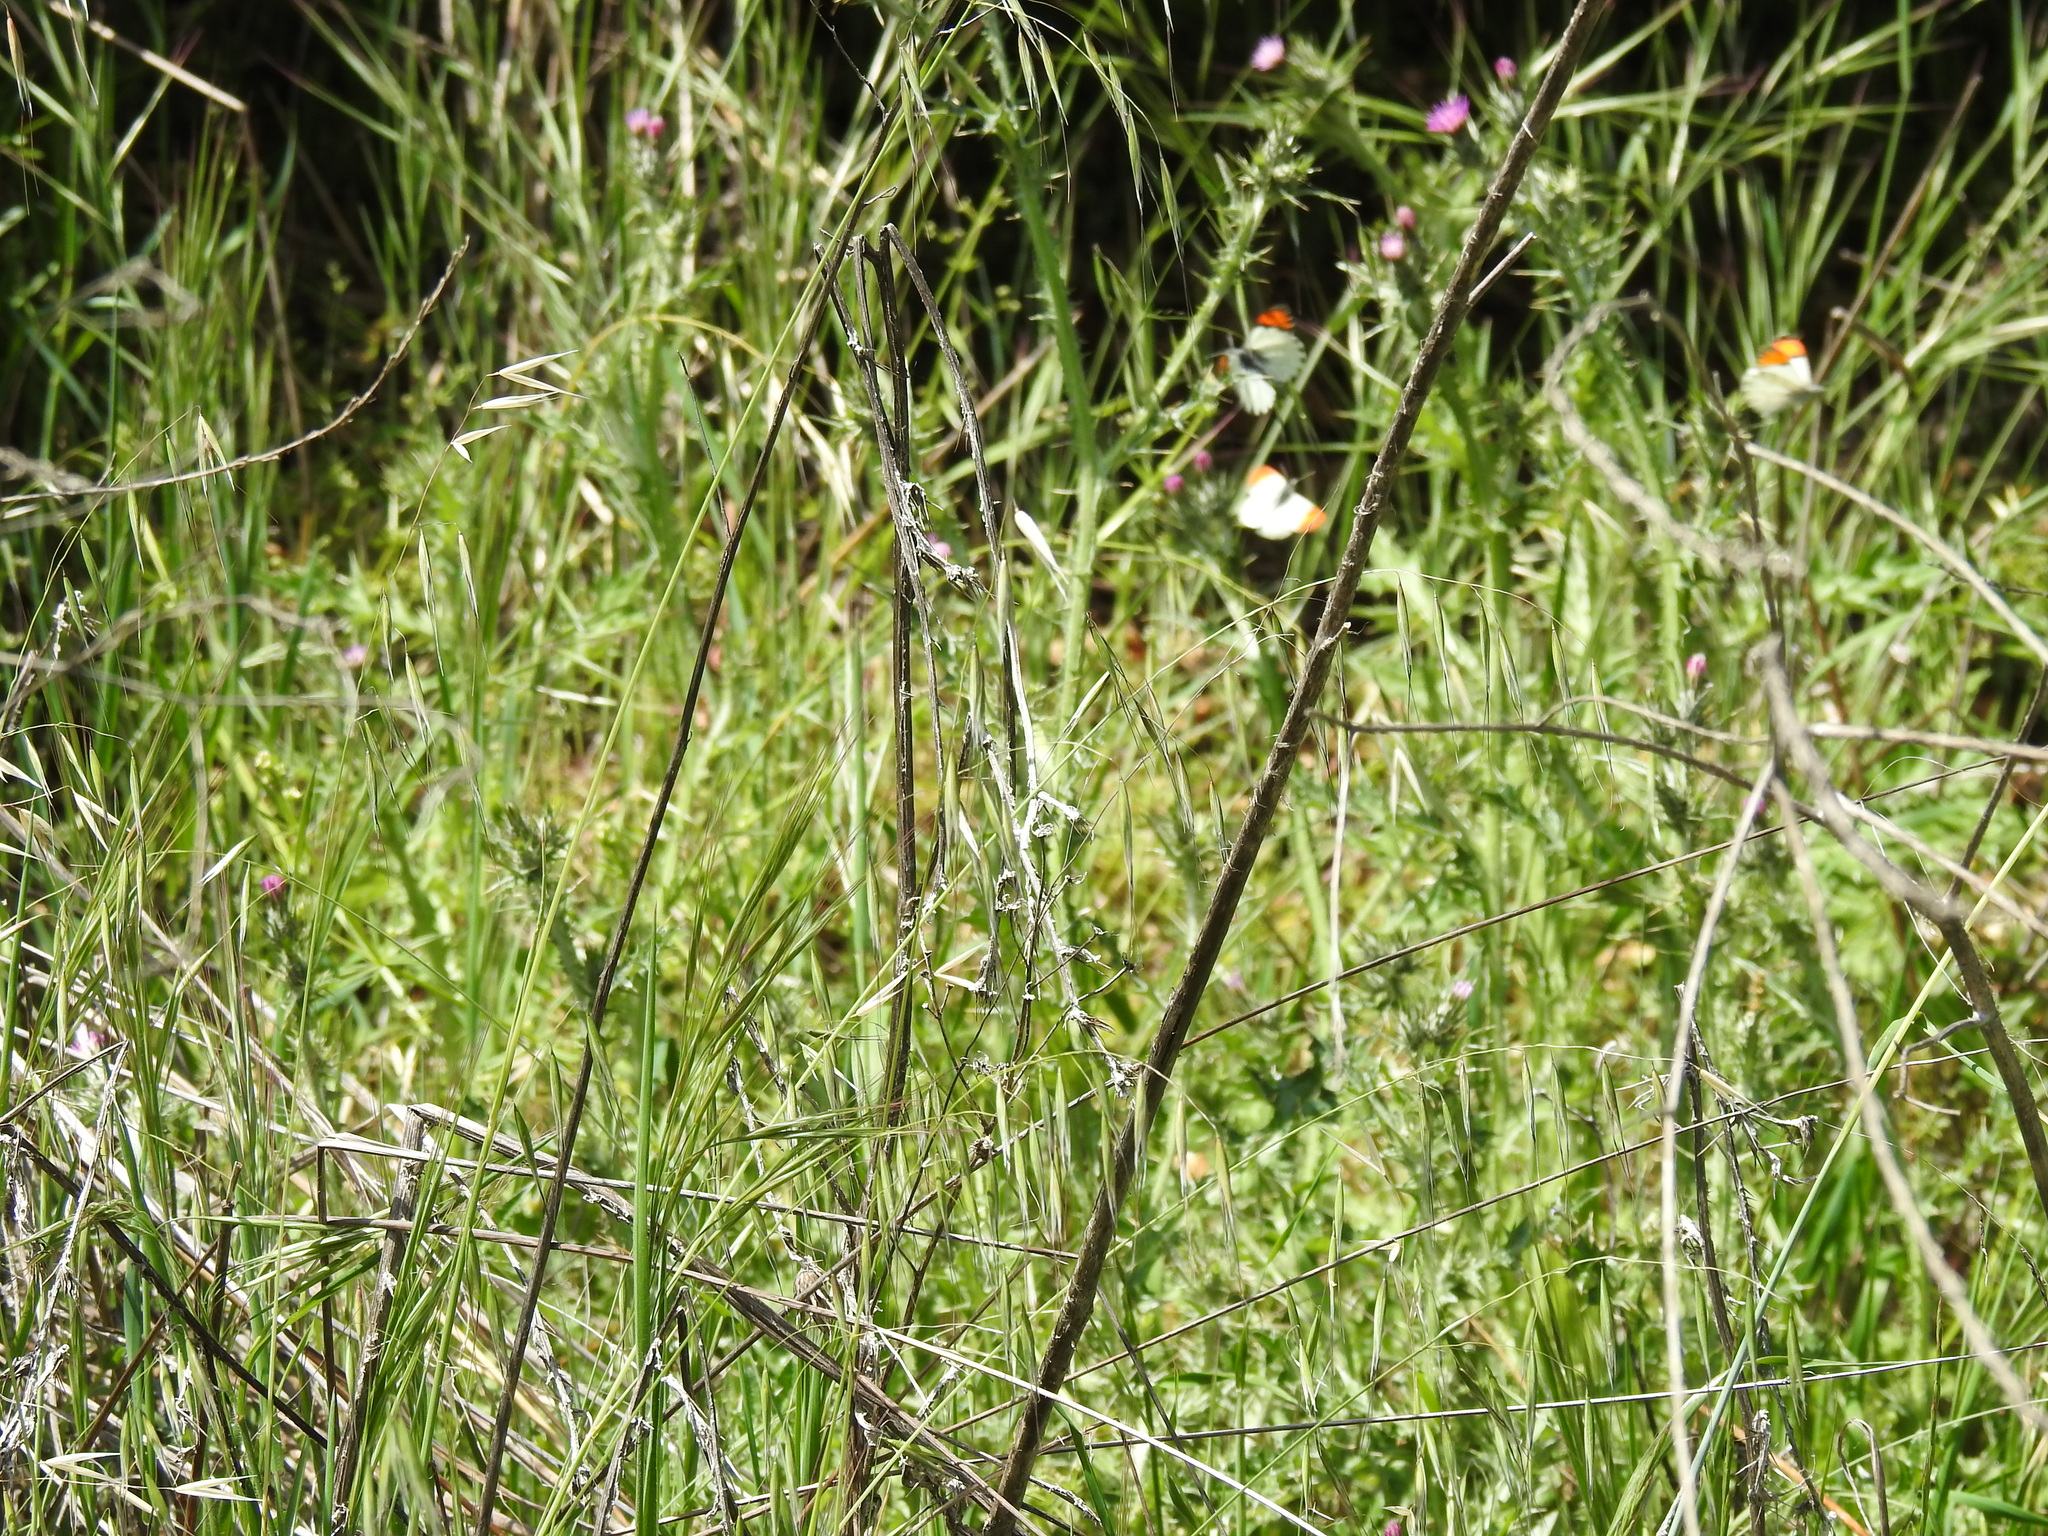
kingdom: Animalia
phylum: Arthropoda
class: Insecta
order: Lepidoptera
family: Pieridae
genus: Anthocharis
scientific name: Anthocharis sara
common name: Sara's orangetip
